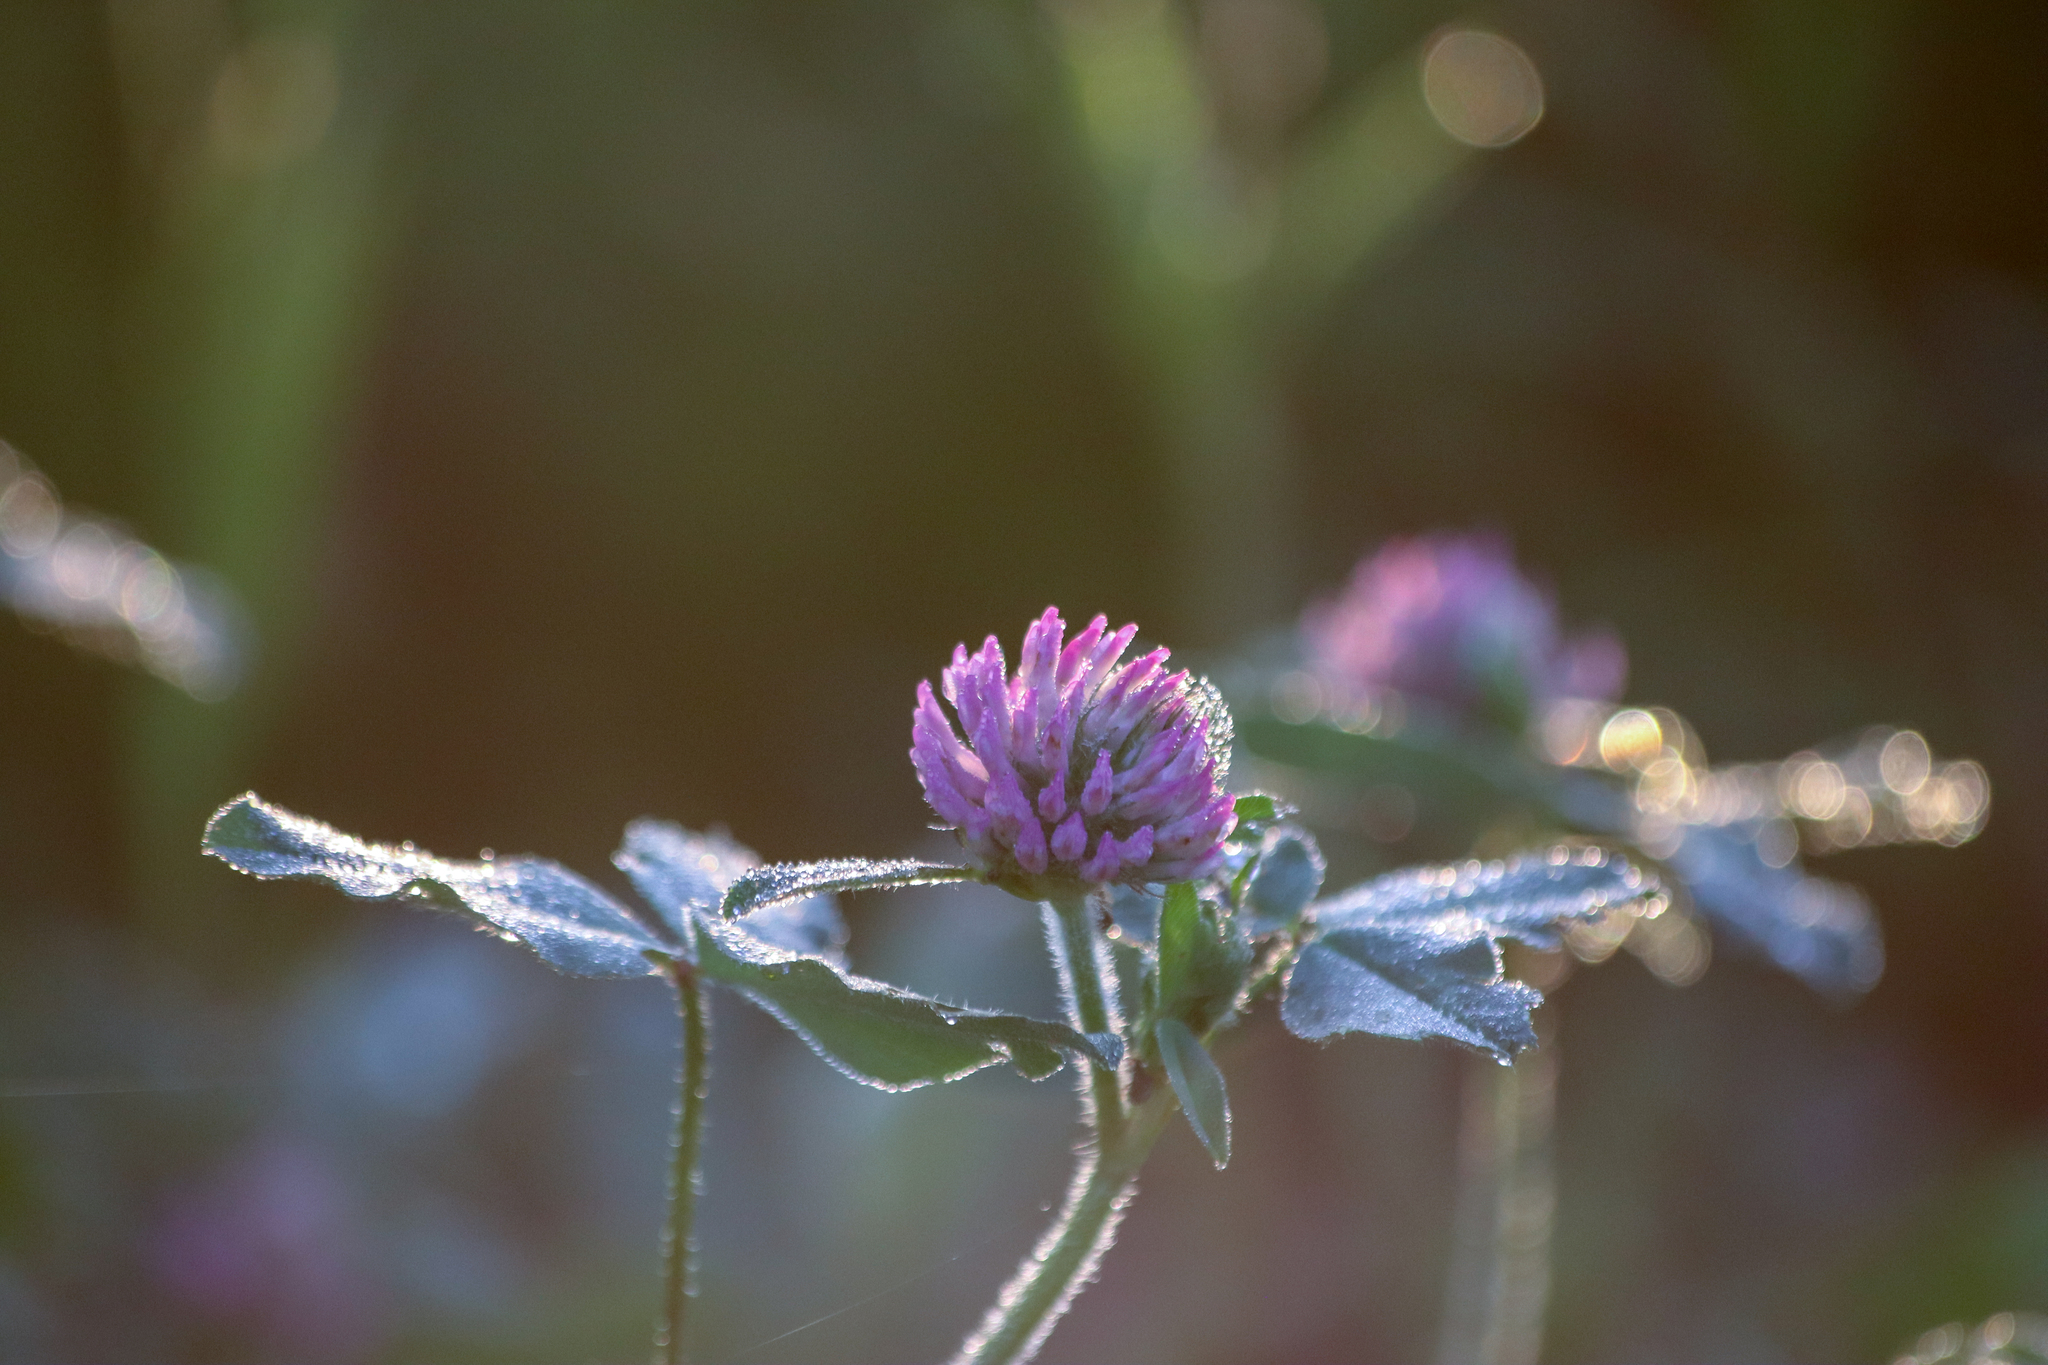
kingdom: Plantae
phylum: Tracheophyta
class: Magnoliopsida
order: Fabales
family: Fabaceae
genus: Trifolium
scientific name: Trifolium pratense
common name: Red clover
